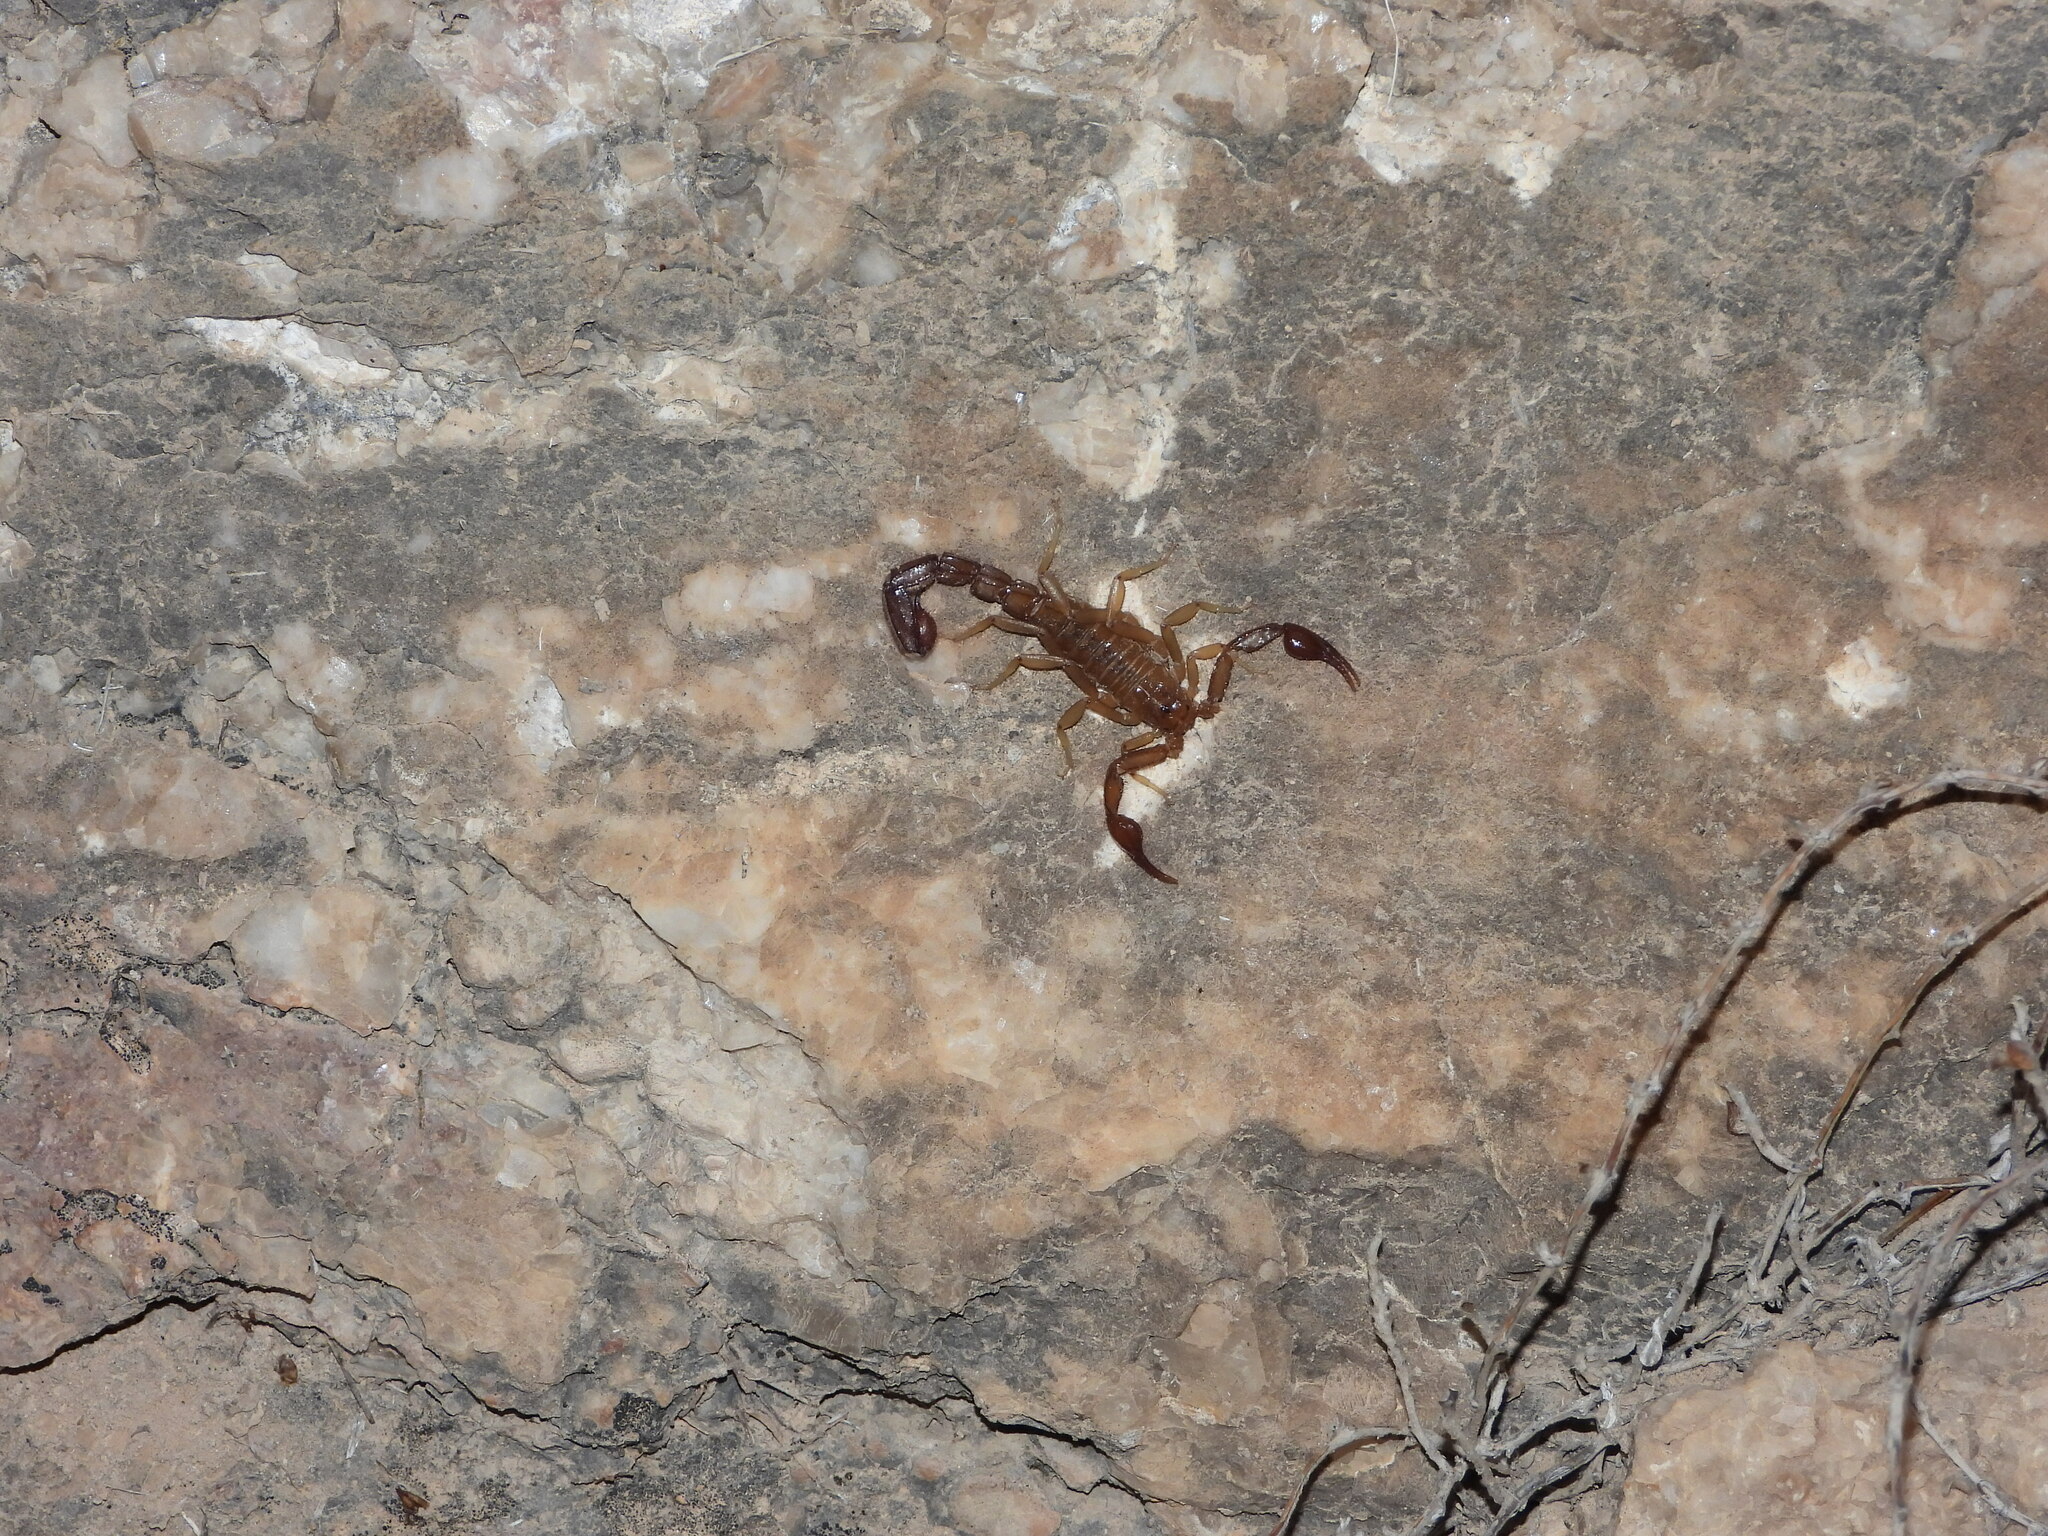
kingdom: Animalia
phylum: Arthropoda
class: Arachnida
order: Scorpiones
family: Vaejovidae
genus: Vaejovis
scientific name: Vaejovis intermedius
